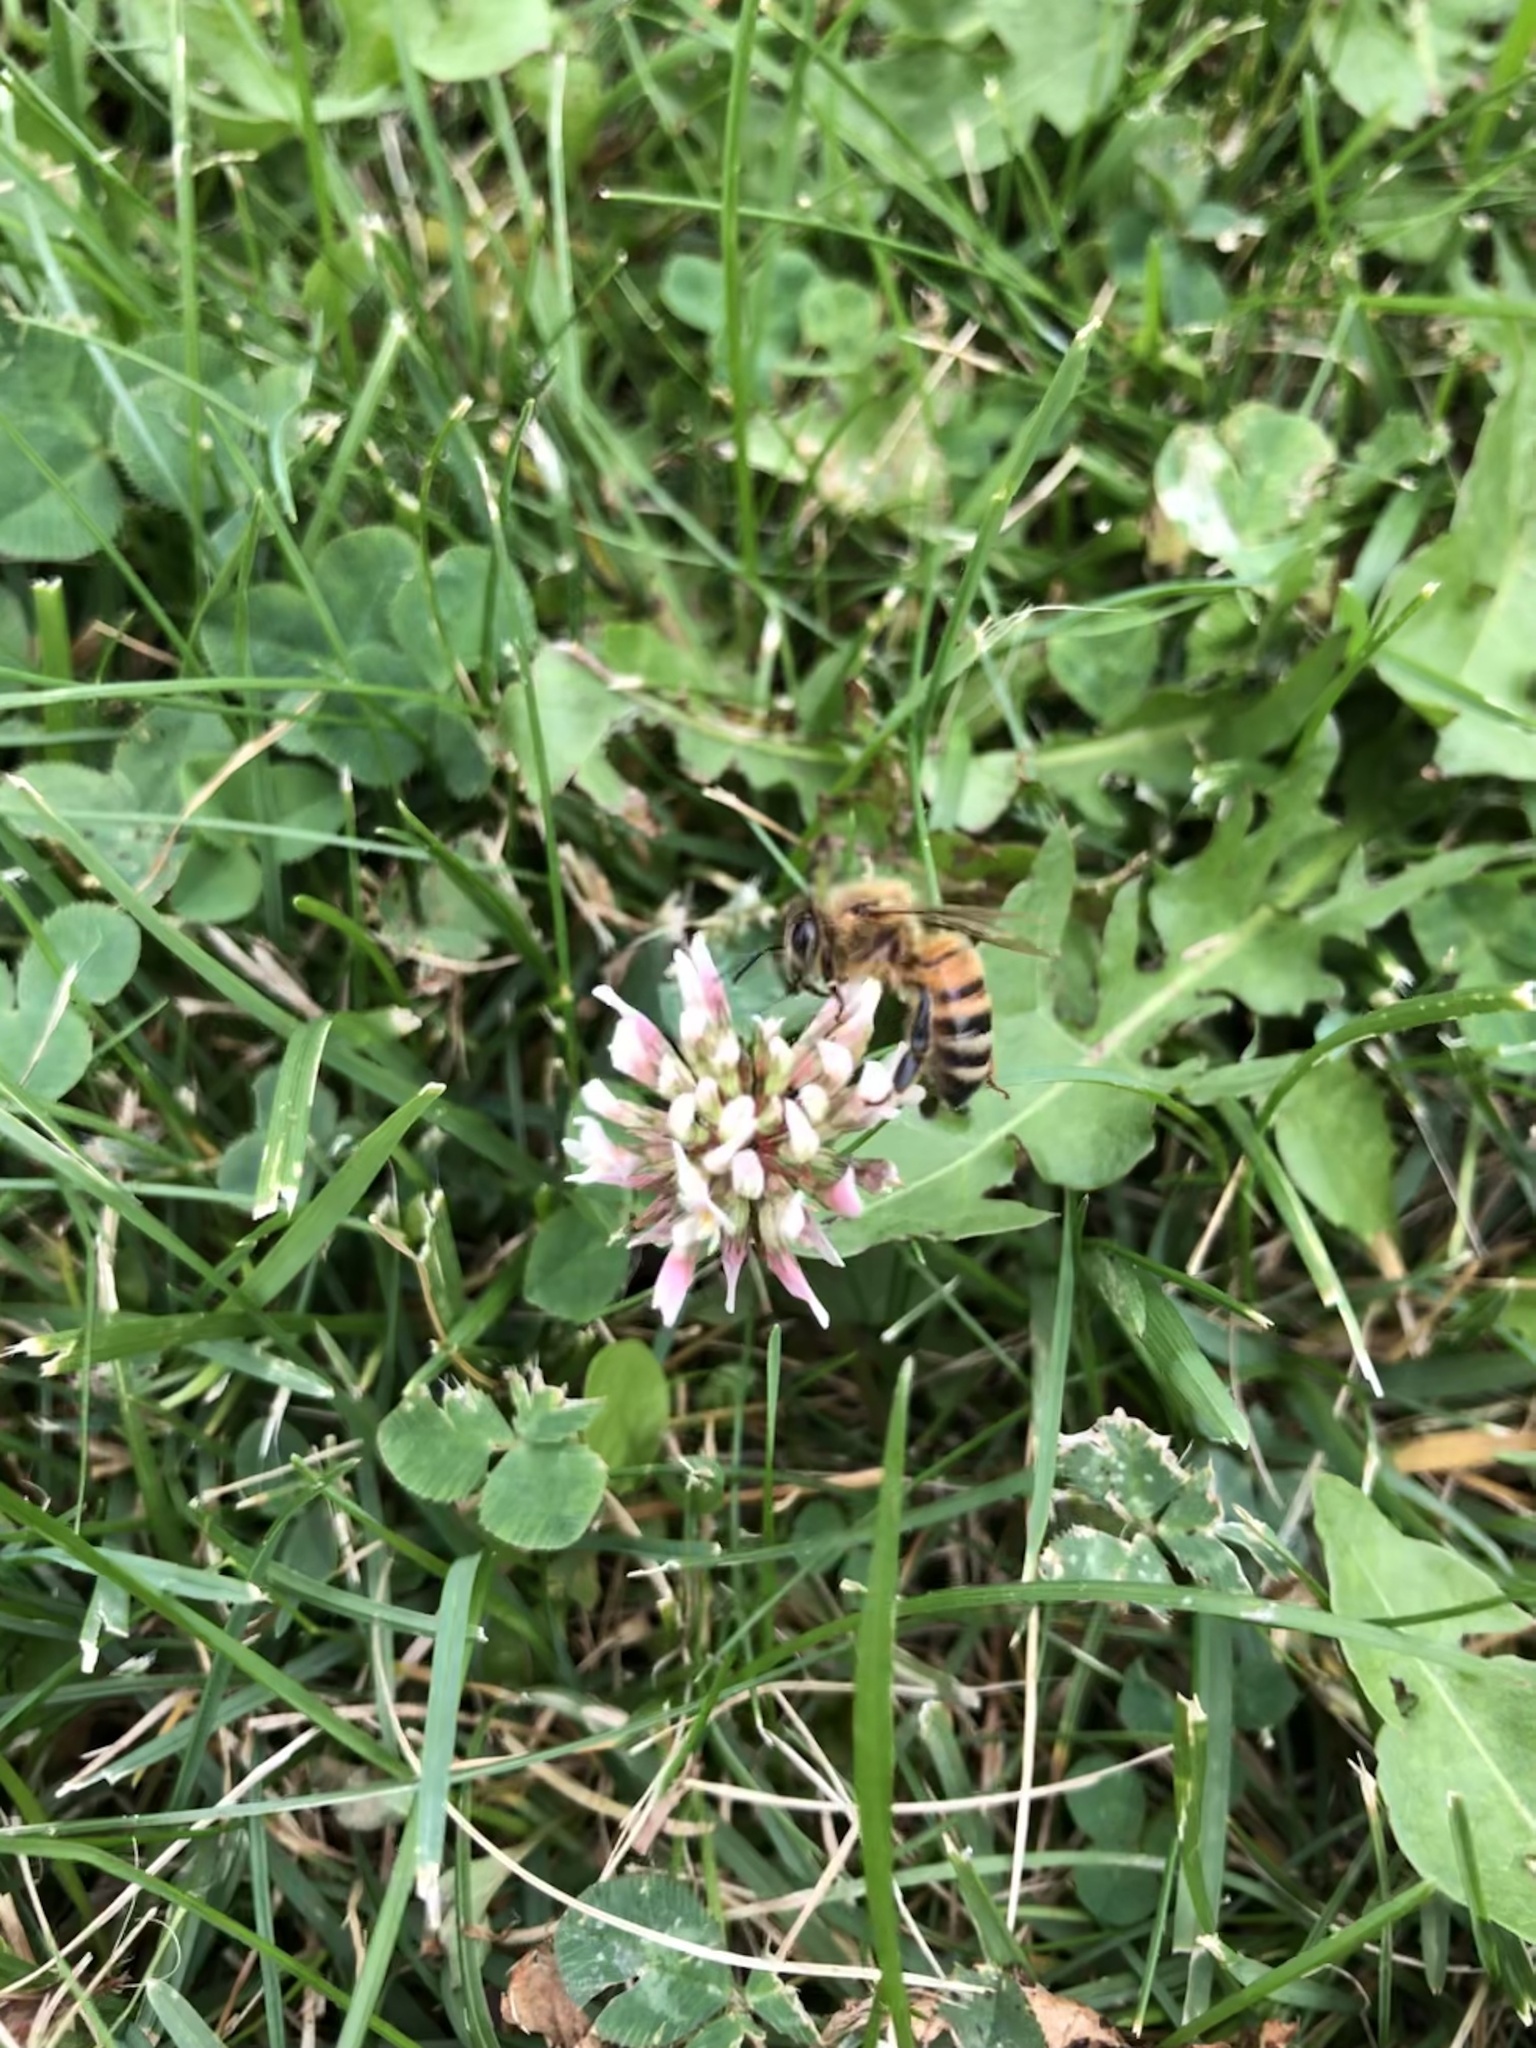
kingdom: Animalia
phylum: Arthropoda
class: Insecta
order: Hymenoptera
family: Apidae
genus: Apis
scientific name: Apis mellifera
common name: Honey bee
